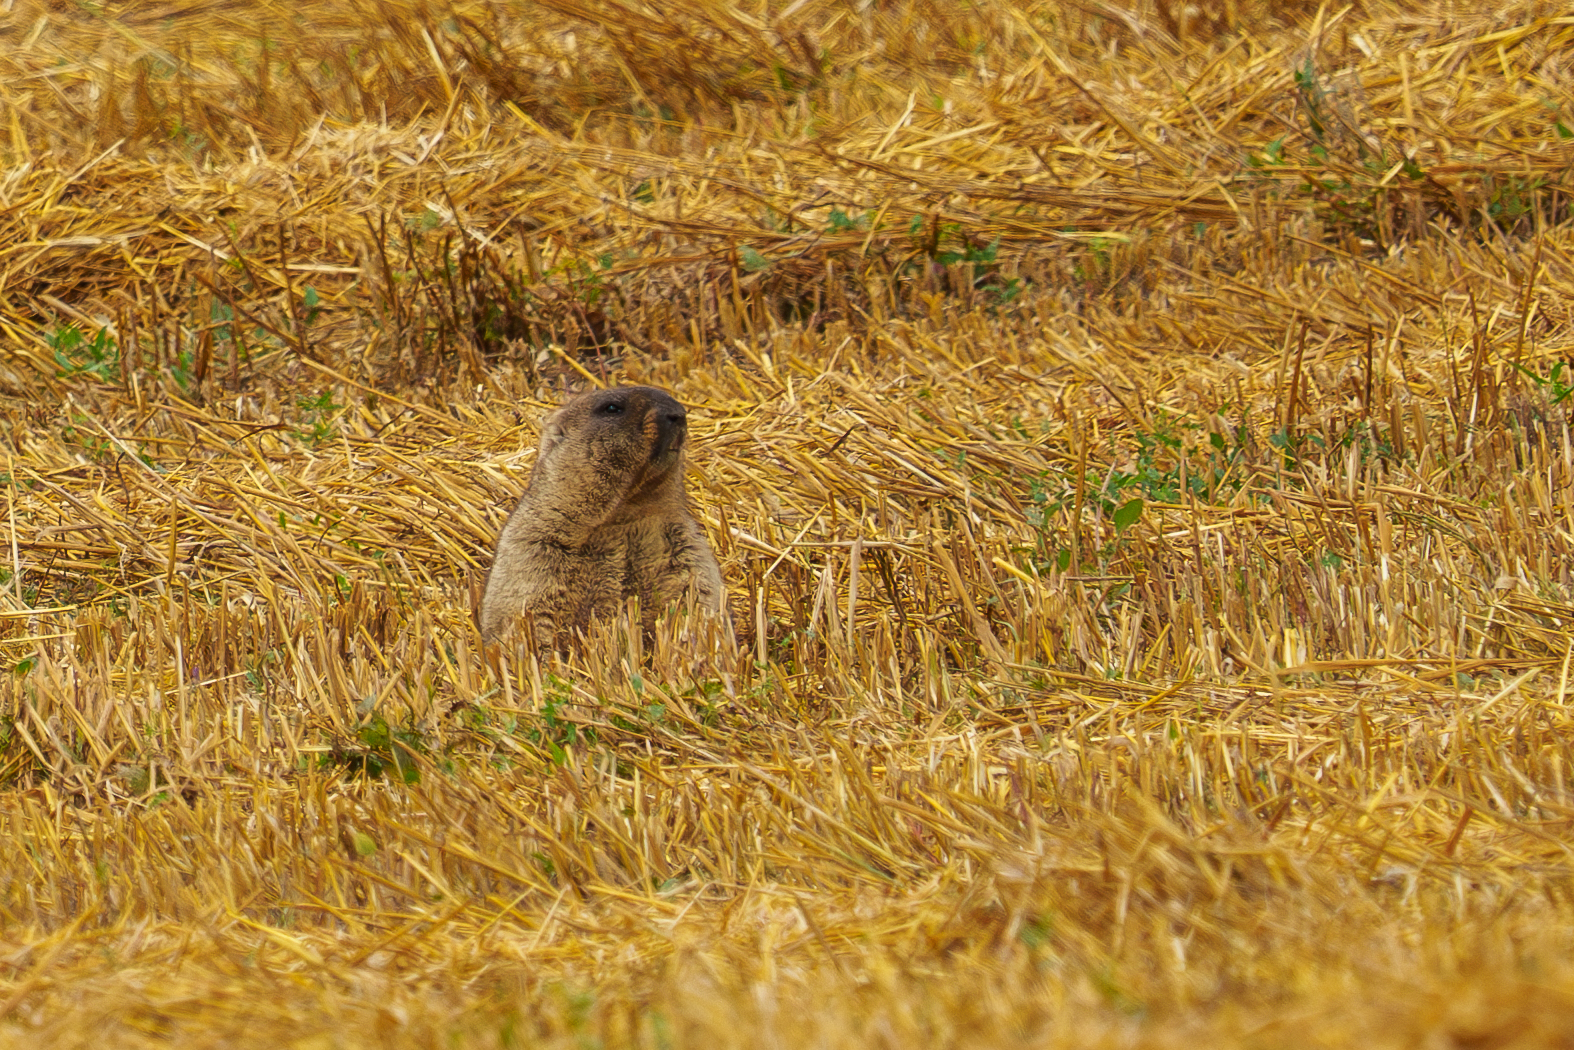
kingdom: Animalia
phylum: Chordata
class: Mammalia
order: Rodentia
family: Sciuridae
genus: Marmota
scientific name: Marmota bobak
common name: Bobak marmot
